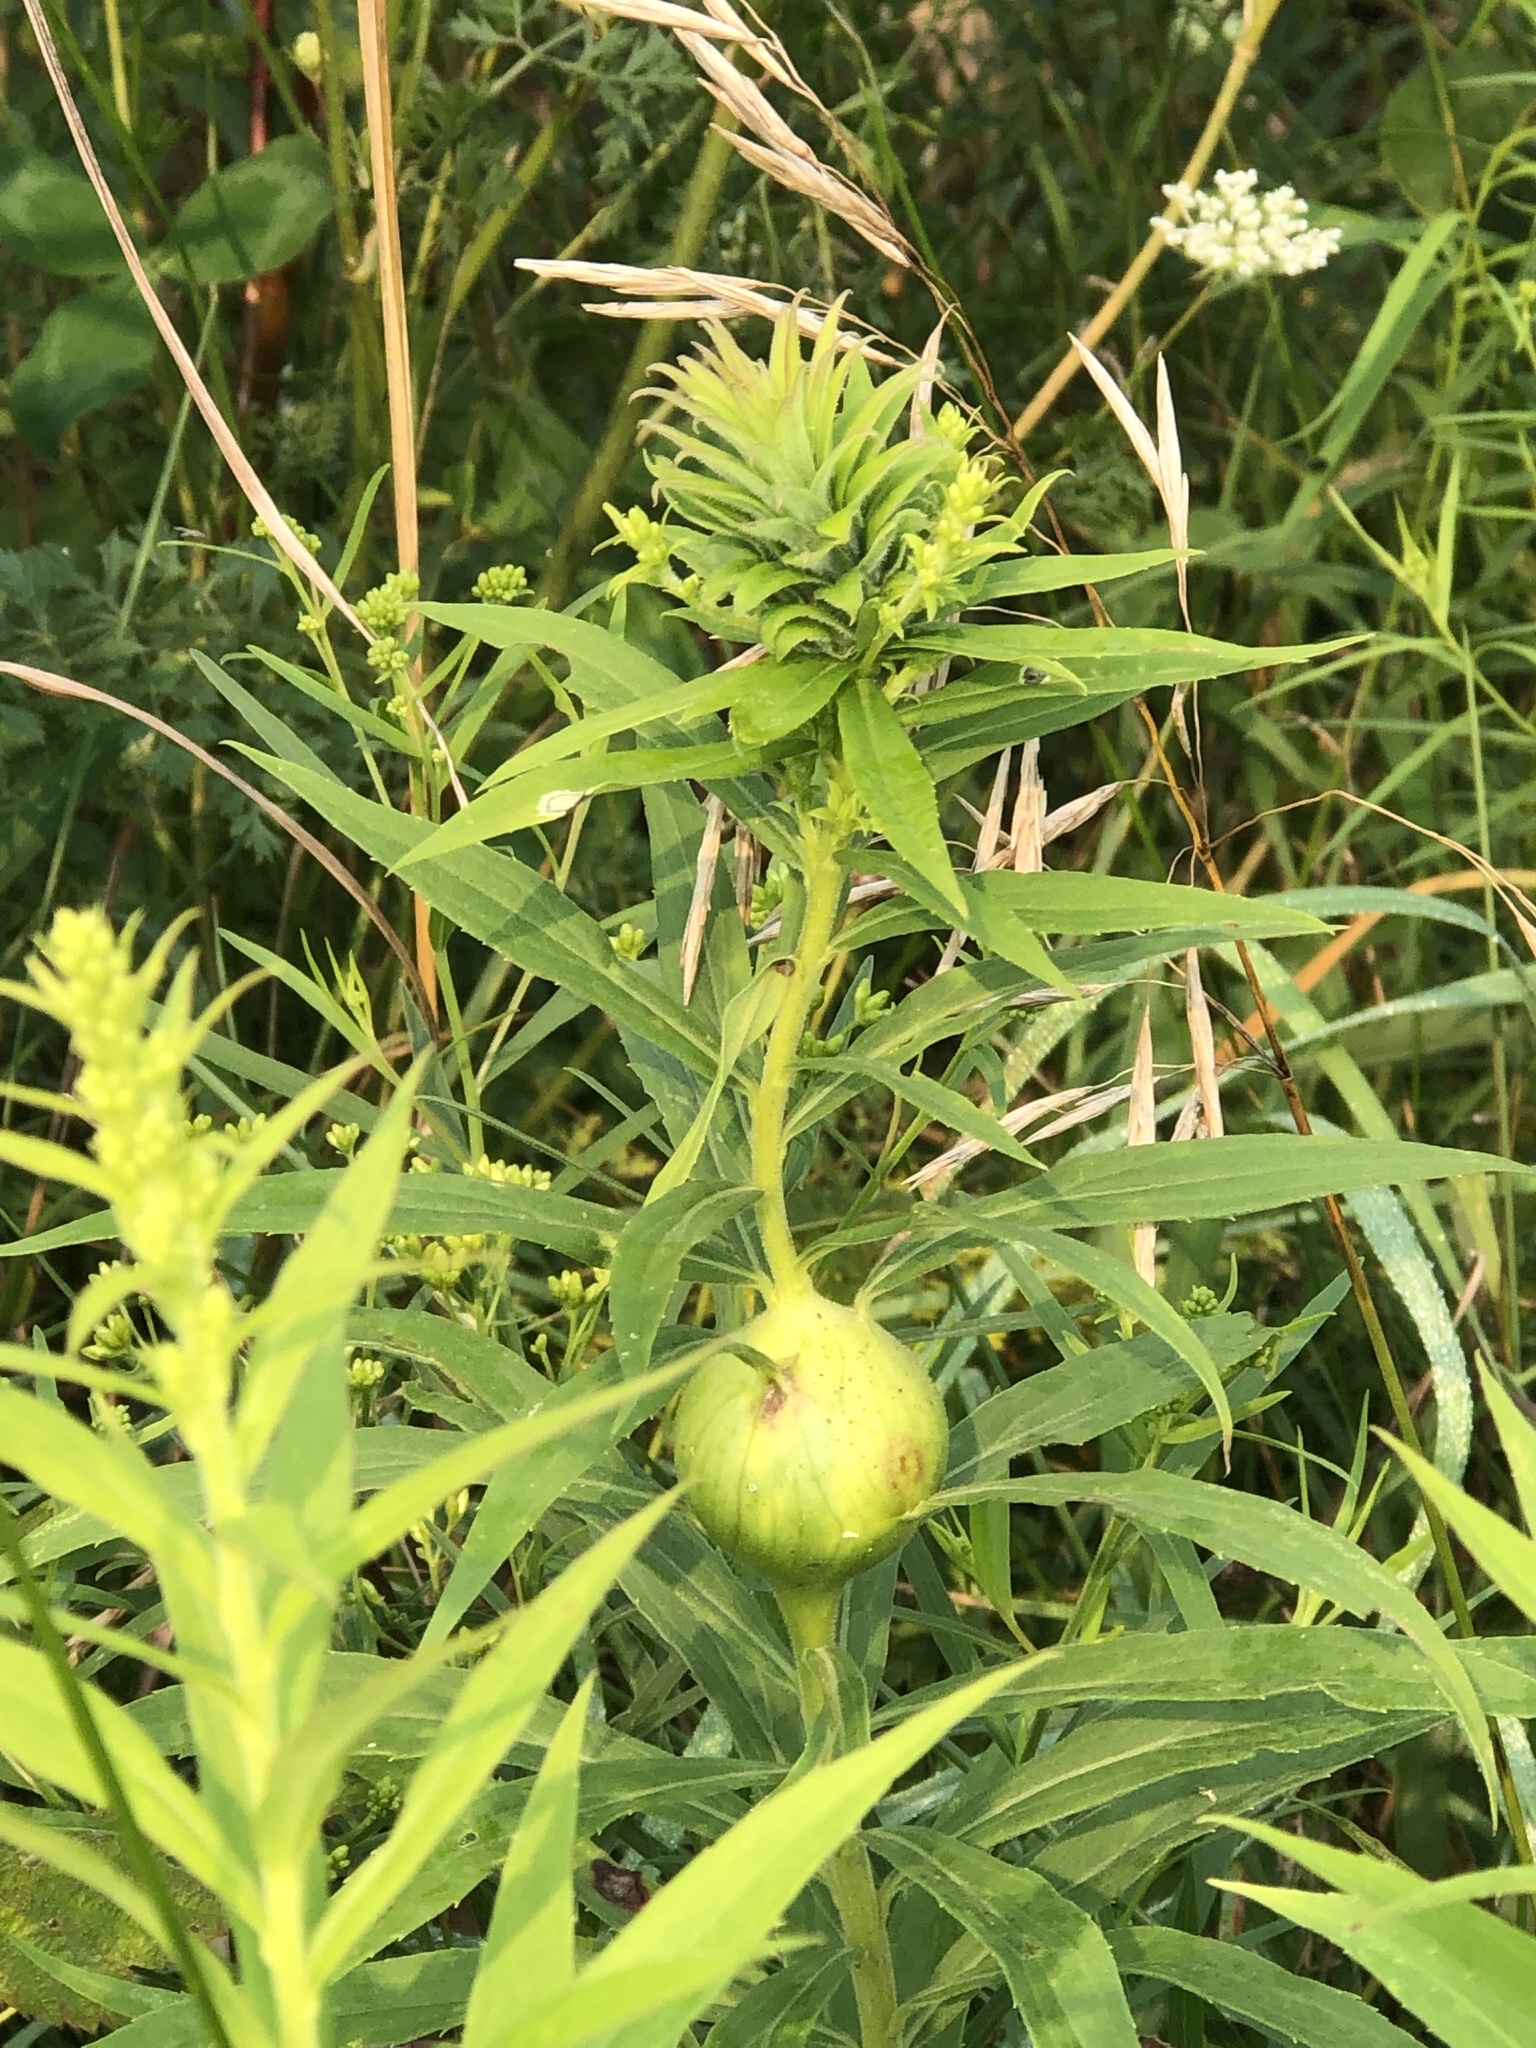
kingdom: Animalia
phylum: Arthropoda
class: Insecta
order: Diptera
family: Tephritidae
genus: Eurosta
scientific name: Eurosta solidaginis
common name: Goldenrod gall fly
